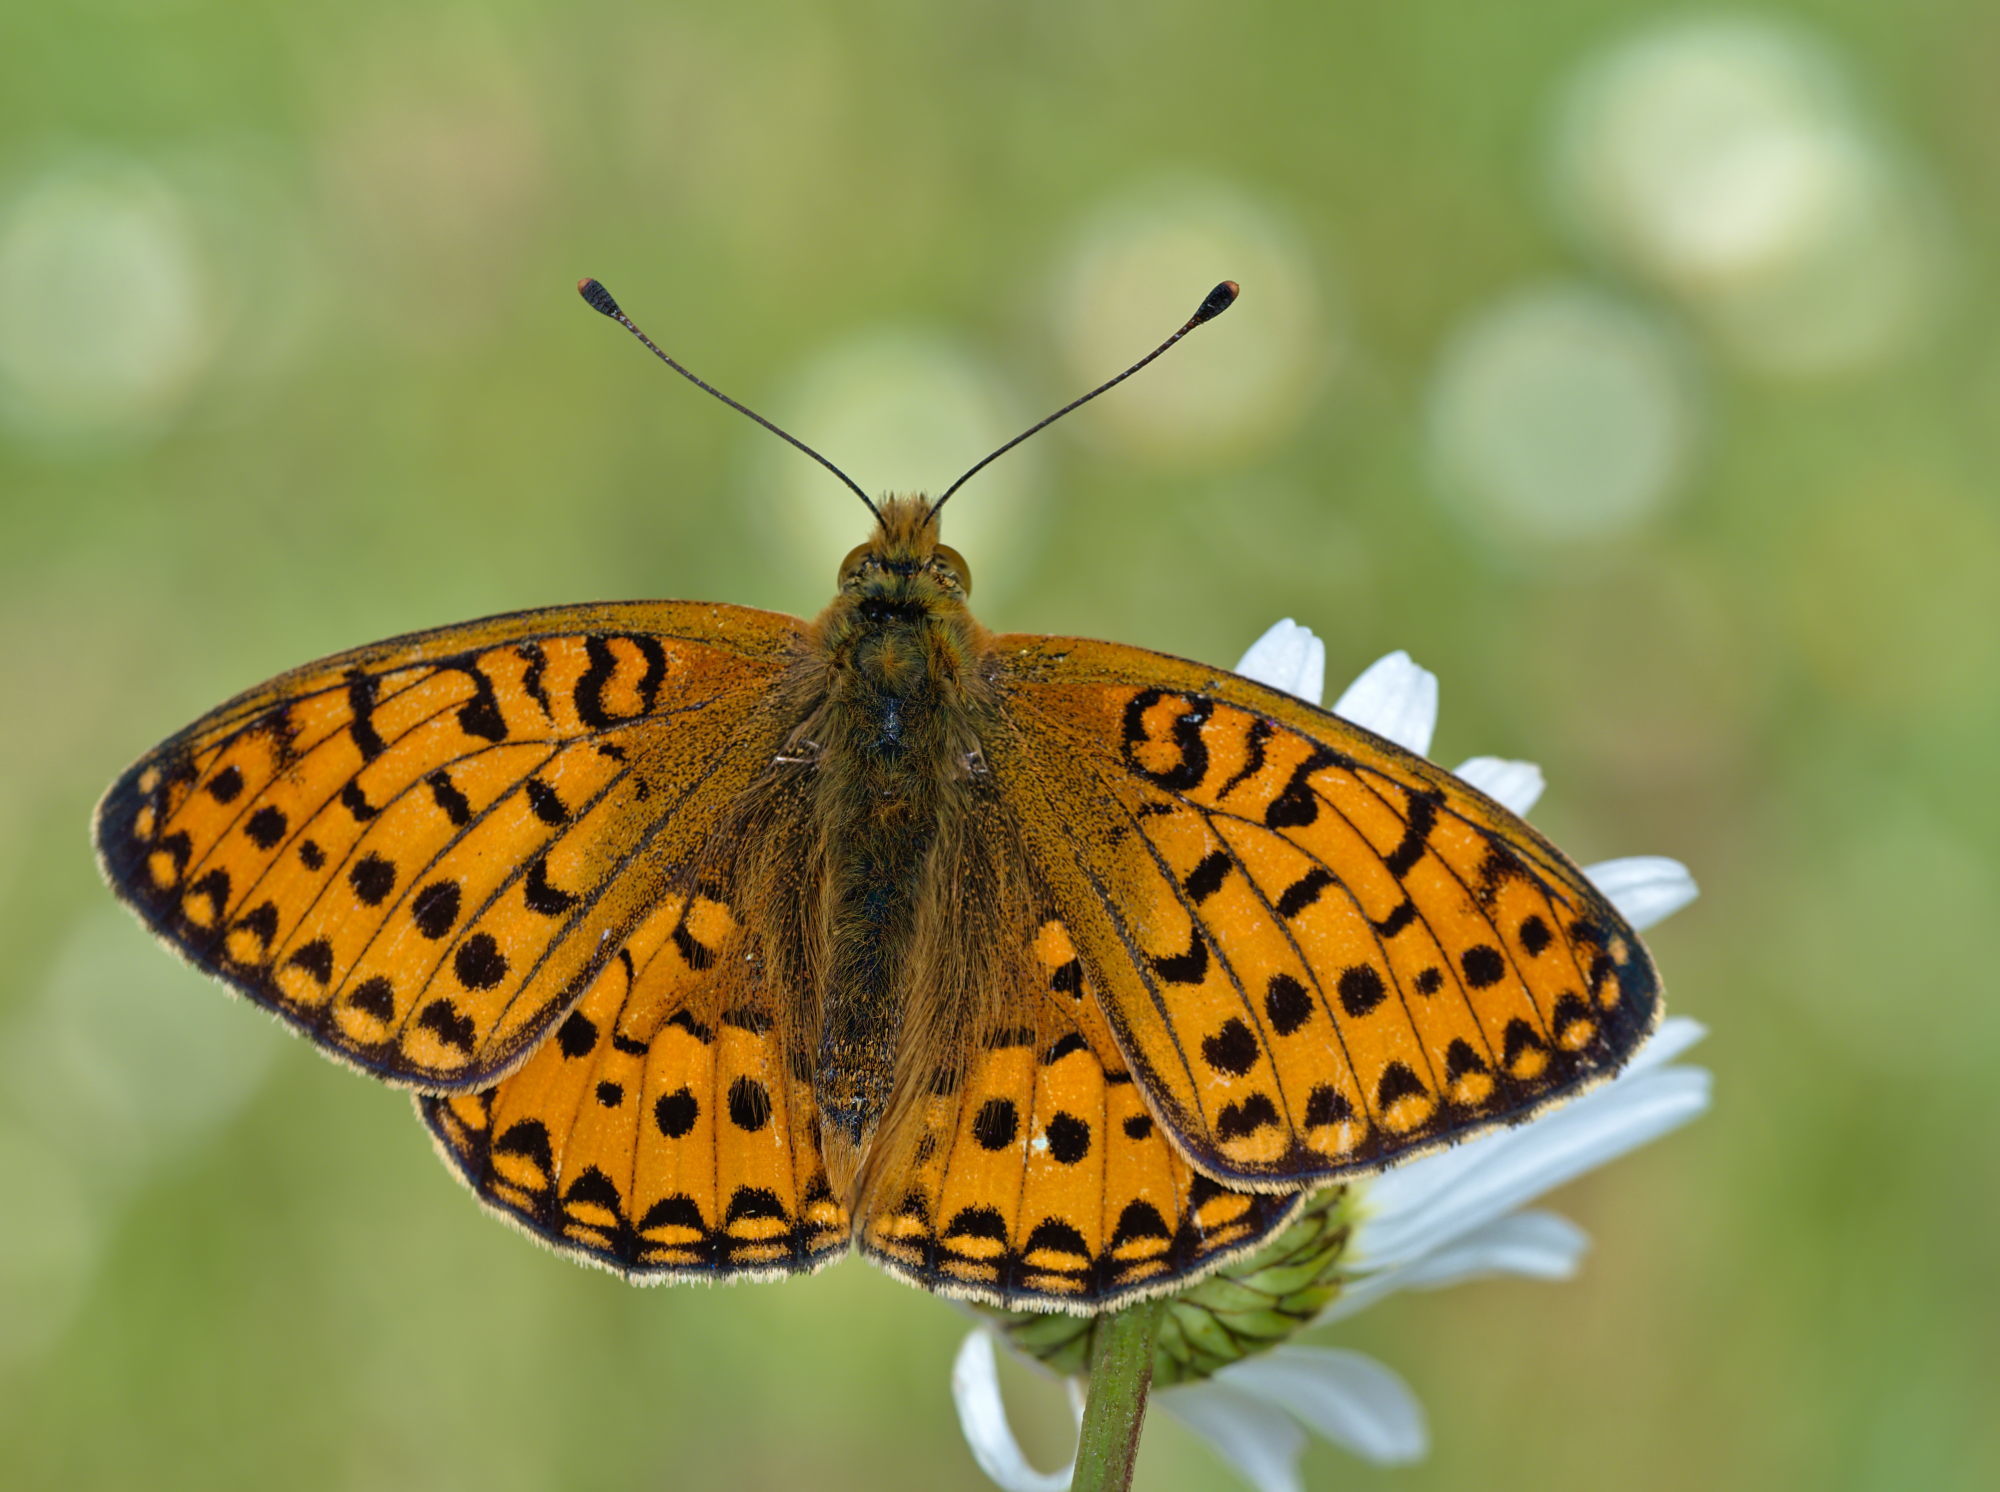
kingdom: Animalia
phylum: Arthropoda
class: Insecta
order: Lepidoptera
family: Nymphalidae
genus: Speyeria
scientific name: Speyeria aglaja
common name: Dark green fritillary
